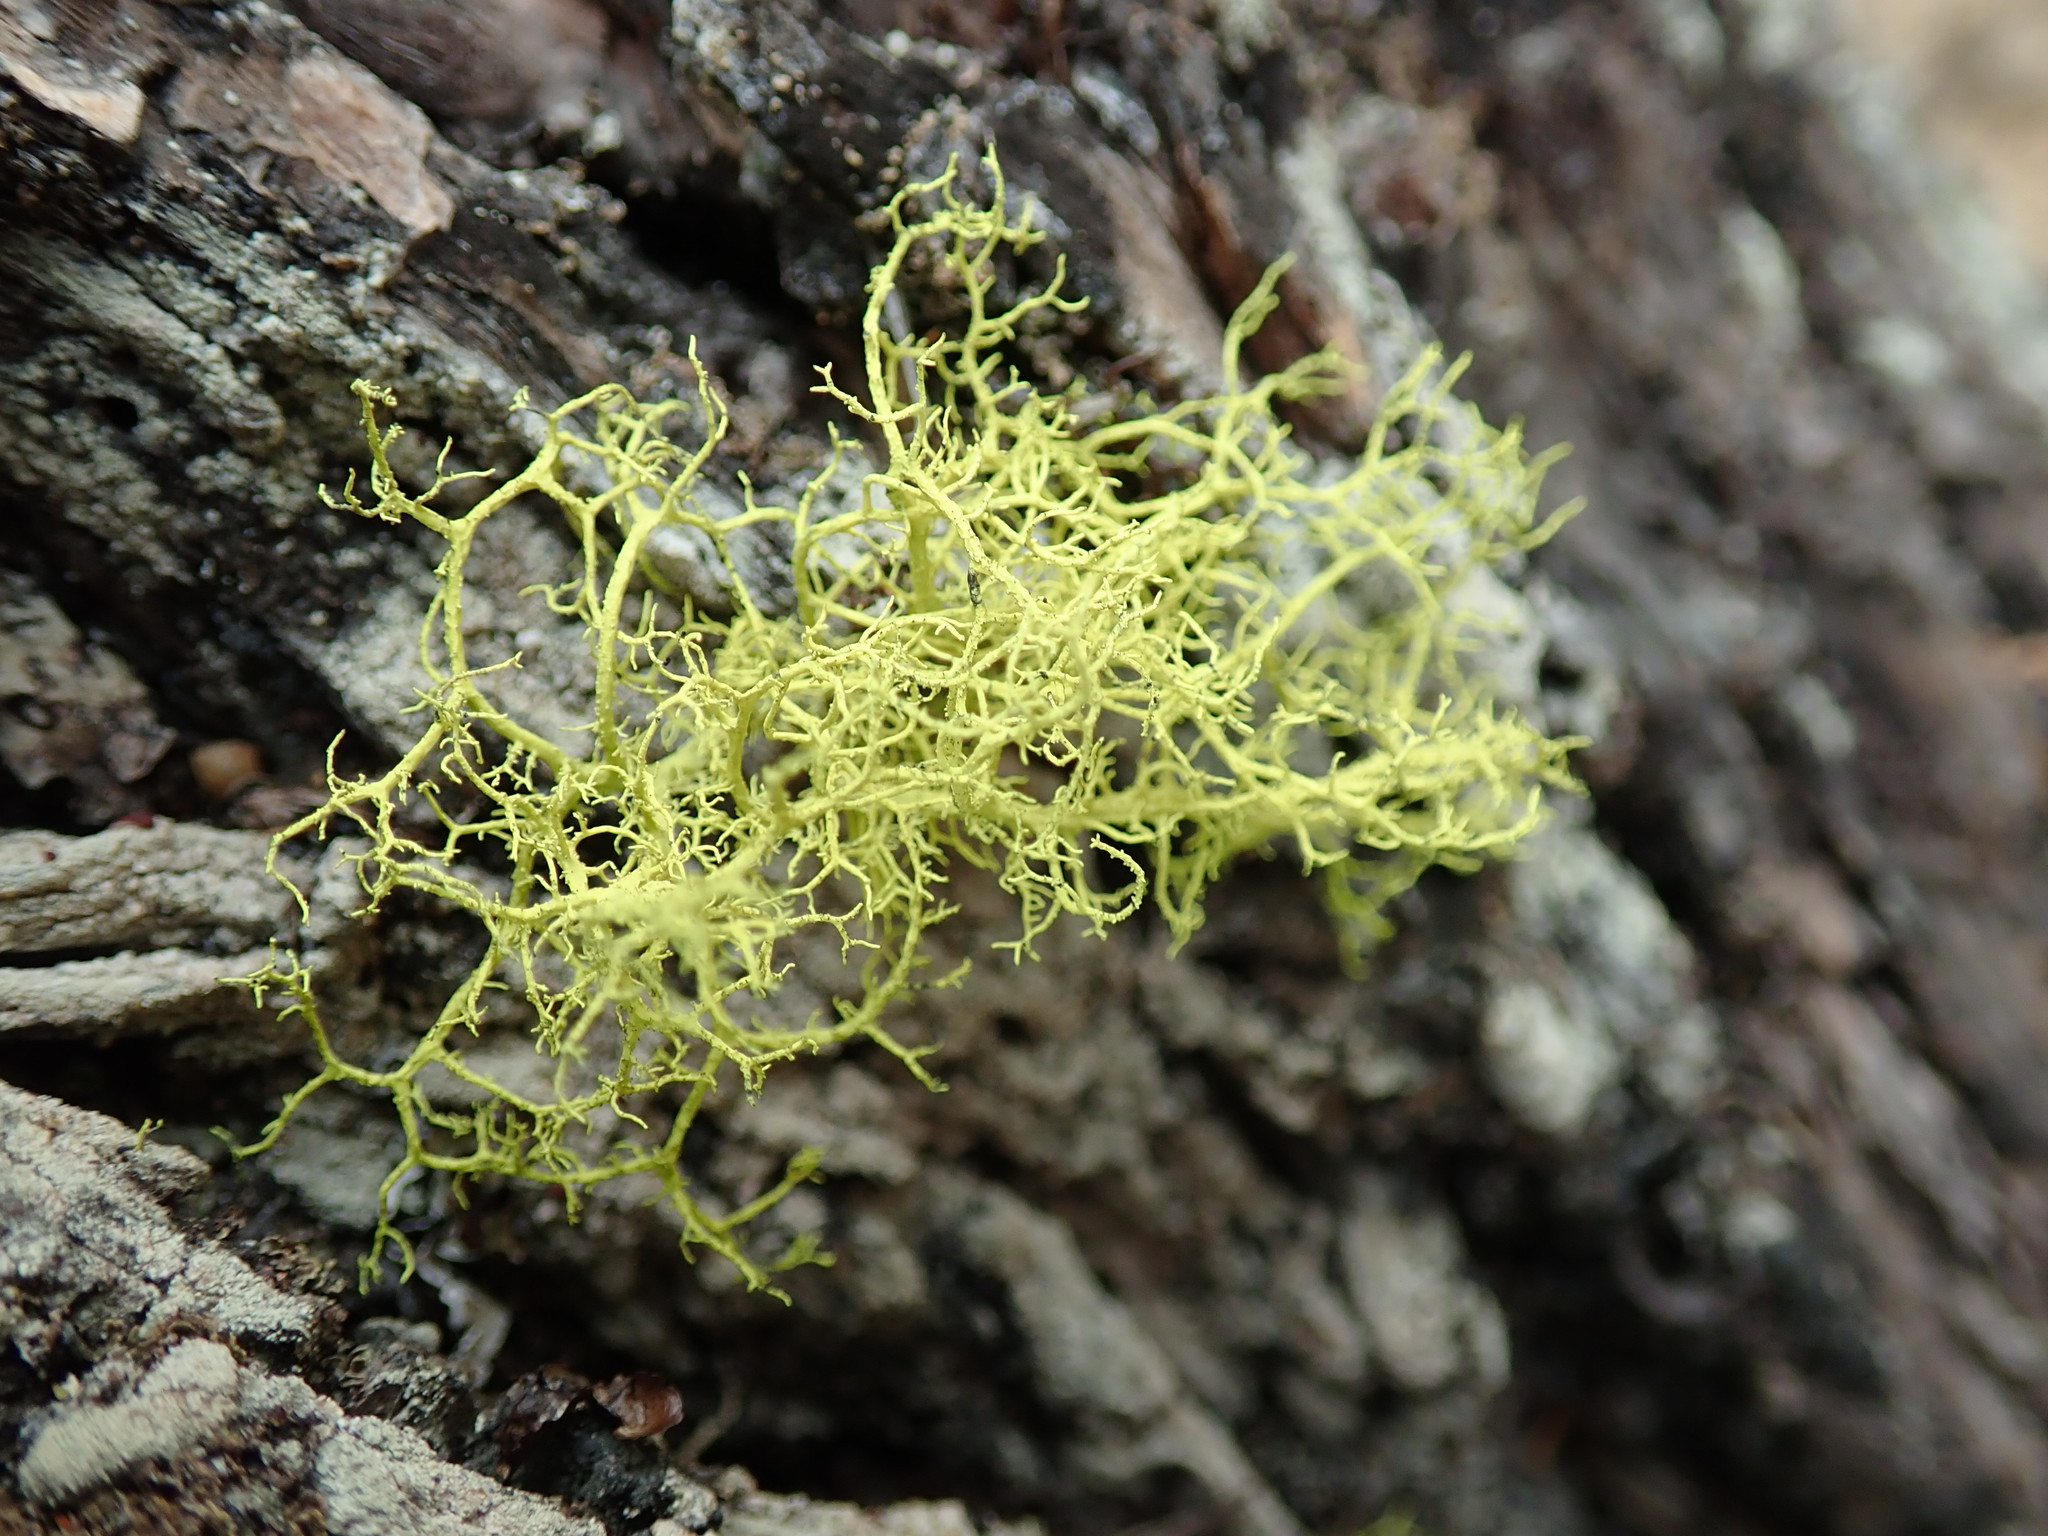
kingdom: Fungi
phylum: Ascomycota
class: Lecanoromycetes
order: Lecanorales
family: Parmeliaceae
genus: Letharia
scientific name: Letharia vulpina
